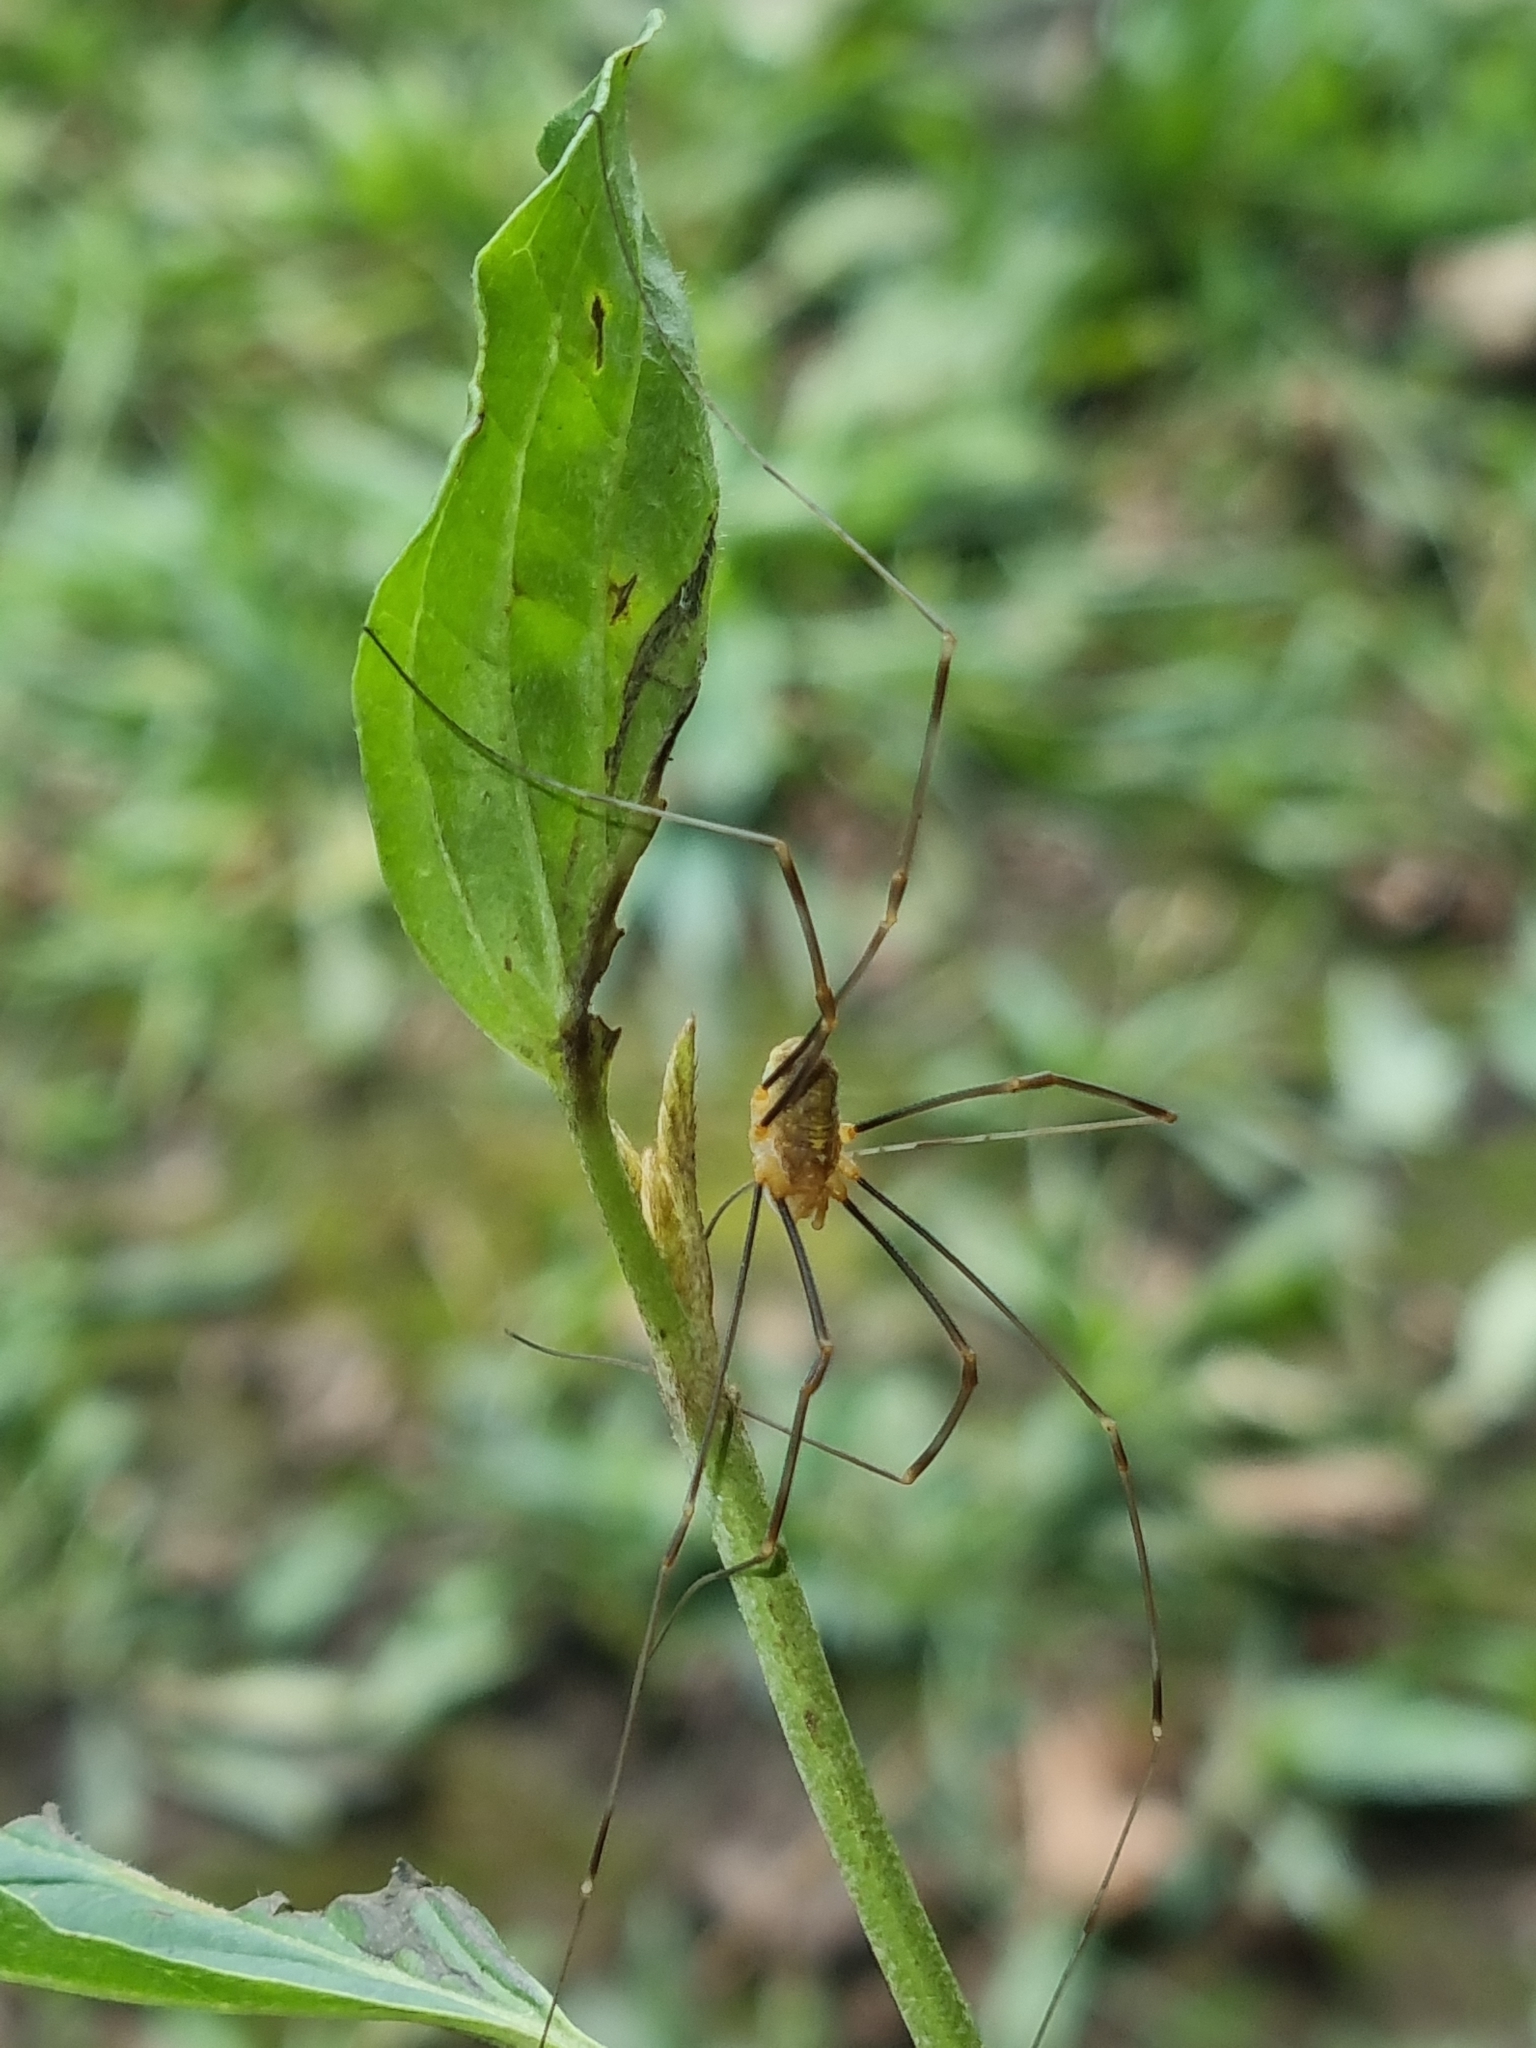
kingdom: Animalia
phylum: Arthropoda
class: Arachnida
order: Opiliones
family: Phalangiidae
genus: Opilio
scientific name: Opilio canestrinii
